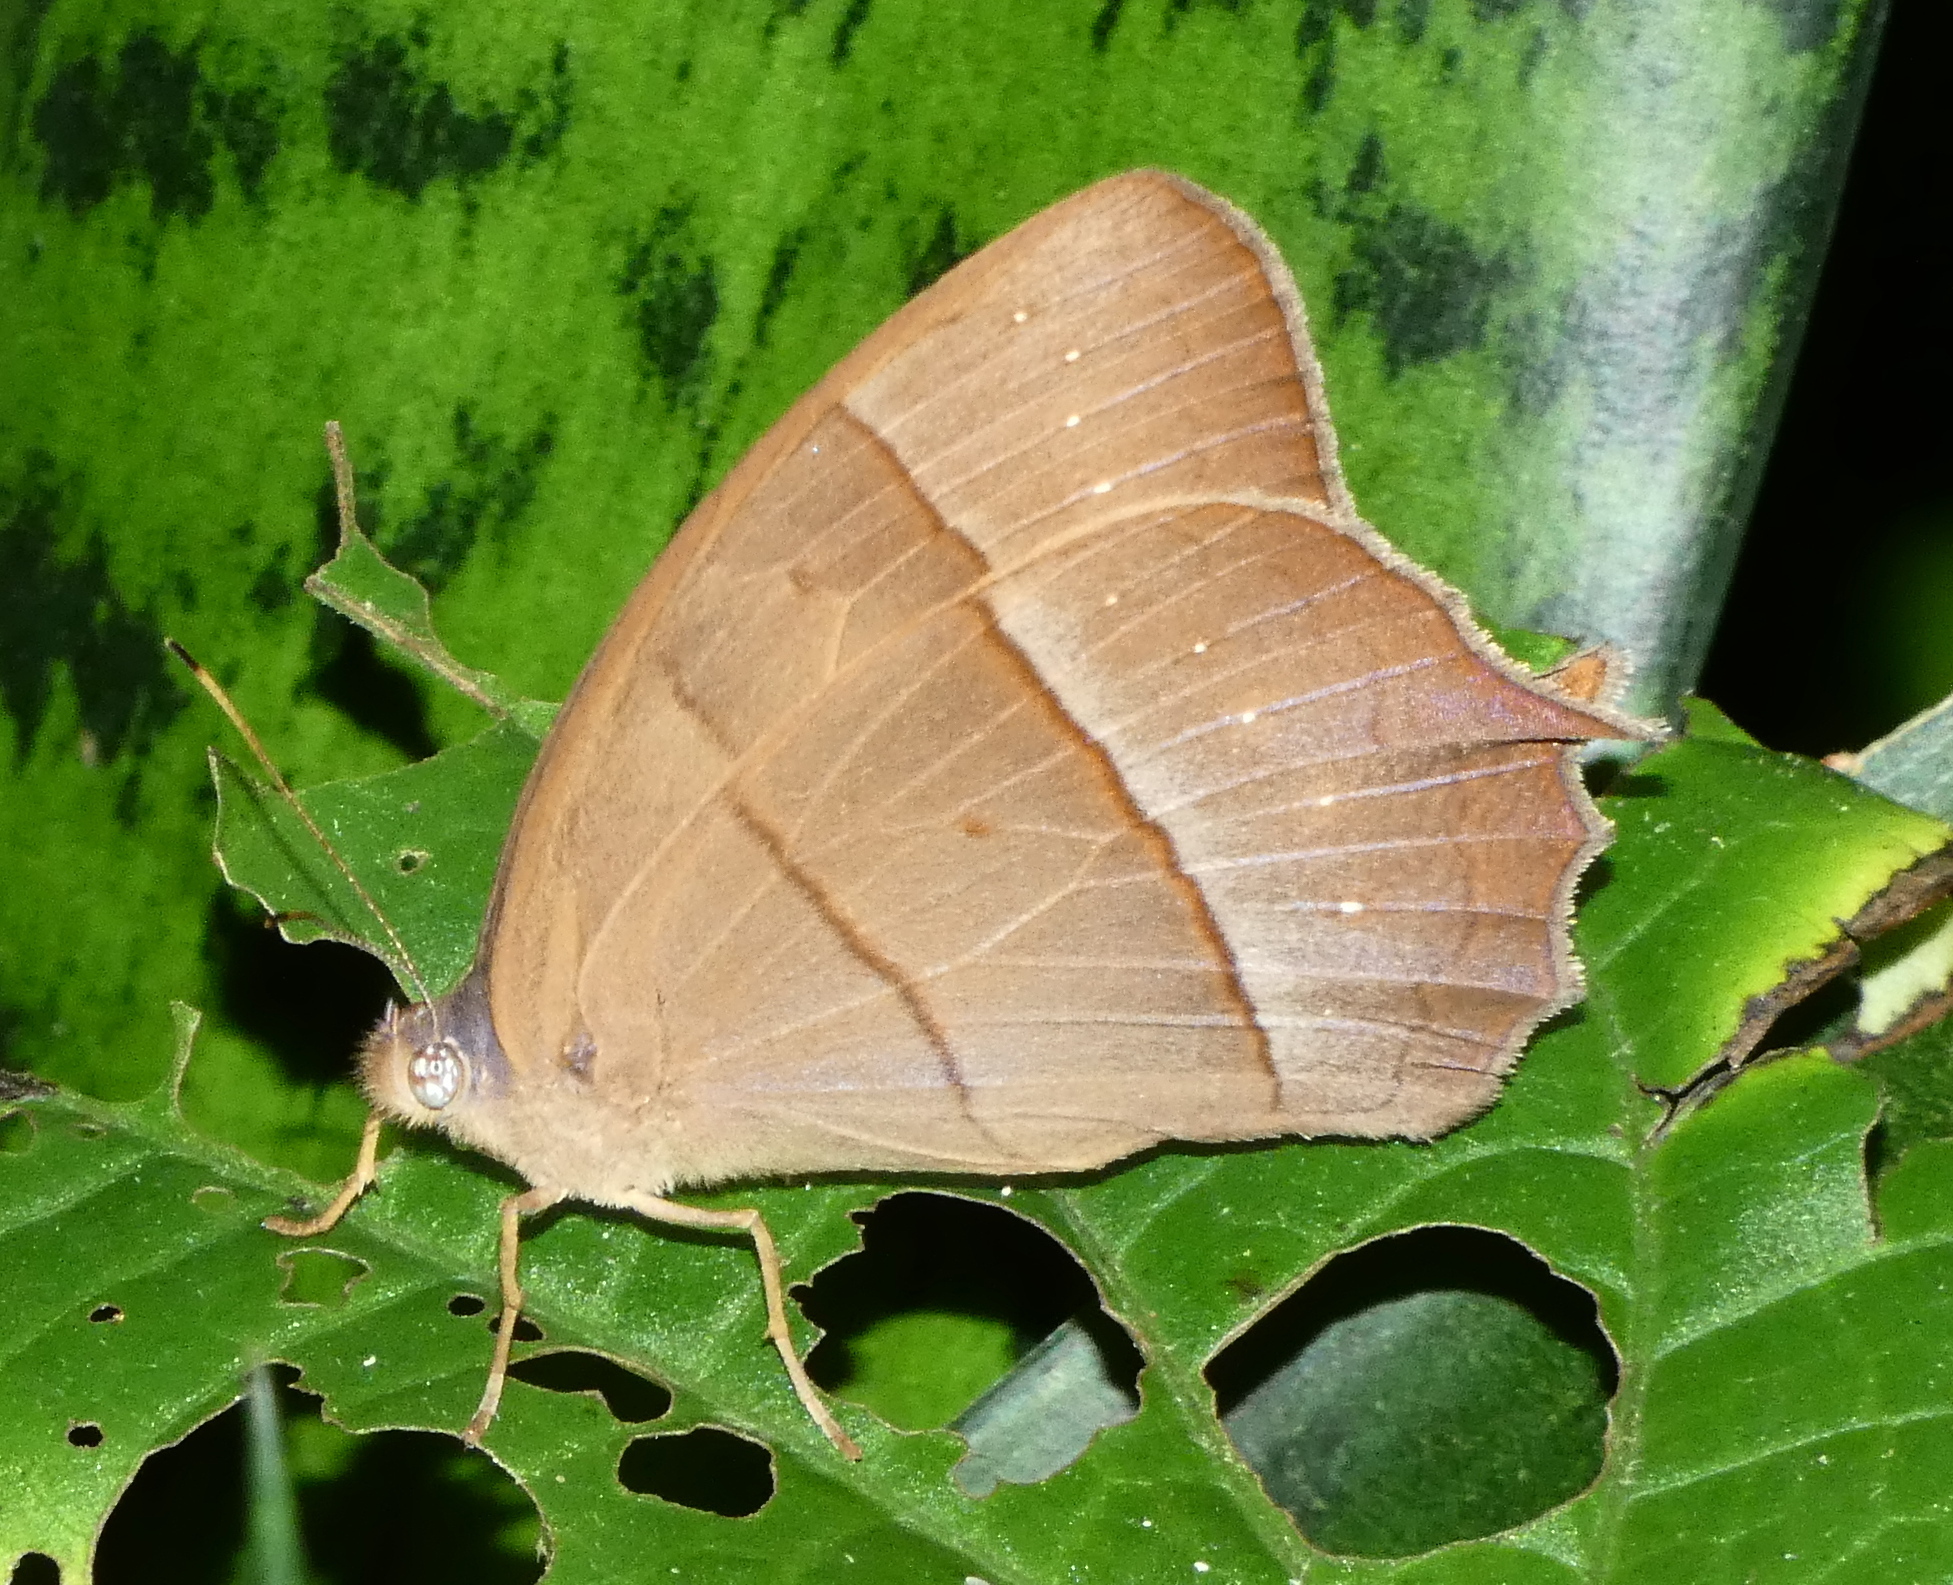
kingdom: Animalia
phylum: Arthropoda
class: Insecta
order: Lepidoptera
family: Nymphalidae
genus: Taygetis
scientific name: Taygetis virgilia
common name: Stub-tailed satyr
